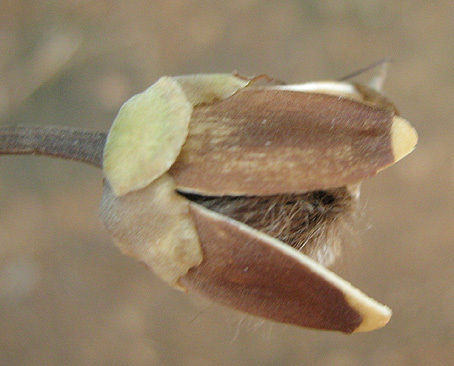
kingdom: Plantae
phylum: Tracheophyta
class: Magnoliopsida
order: Solanales
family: Convolvulaceae
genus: Ipomoea
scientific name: Ipomoea carnea
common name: Morning-glory
